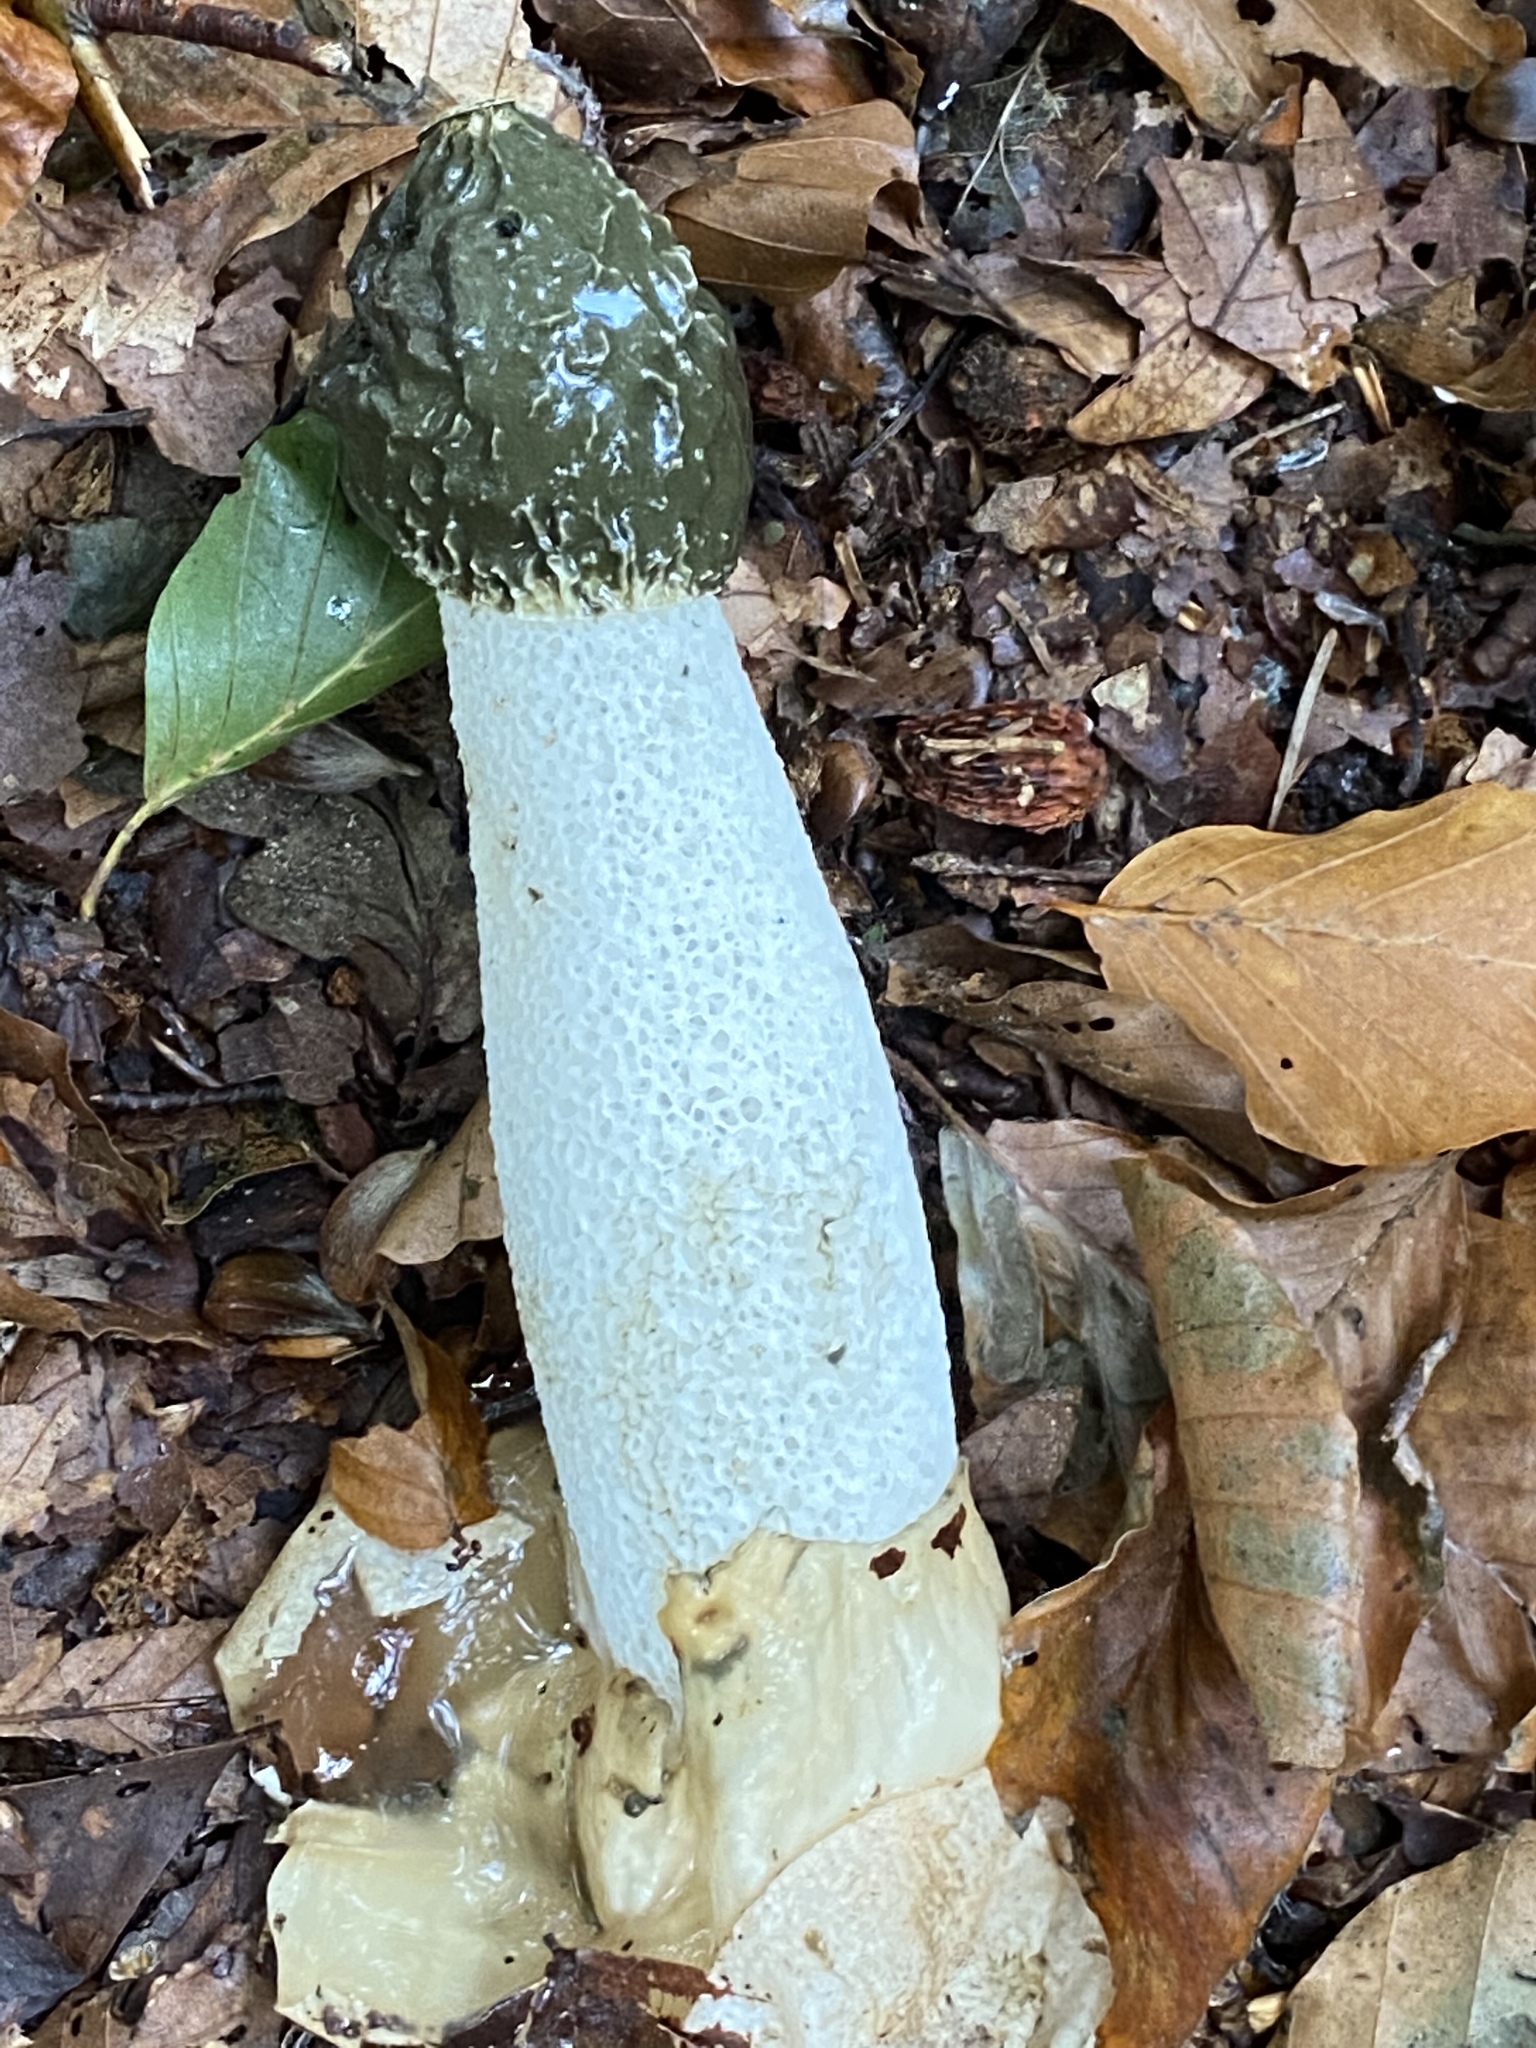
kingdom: Fungi
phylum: Basidiomycota
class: Agaricomycetes
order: Phallales
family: Phallaceae
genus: Phallus
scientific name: Phallus impudicus
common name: Common stinkhorn
